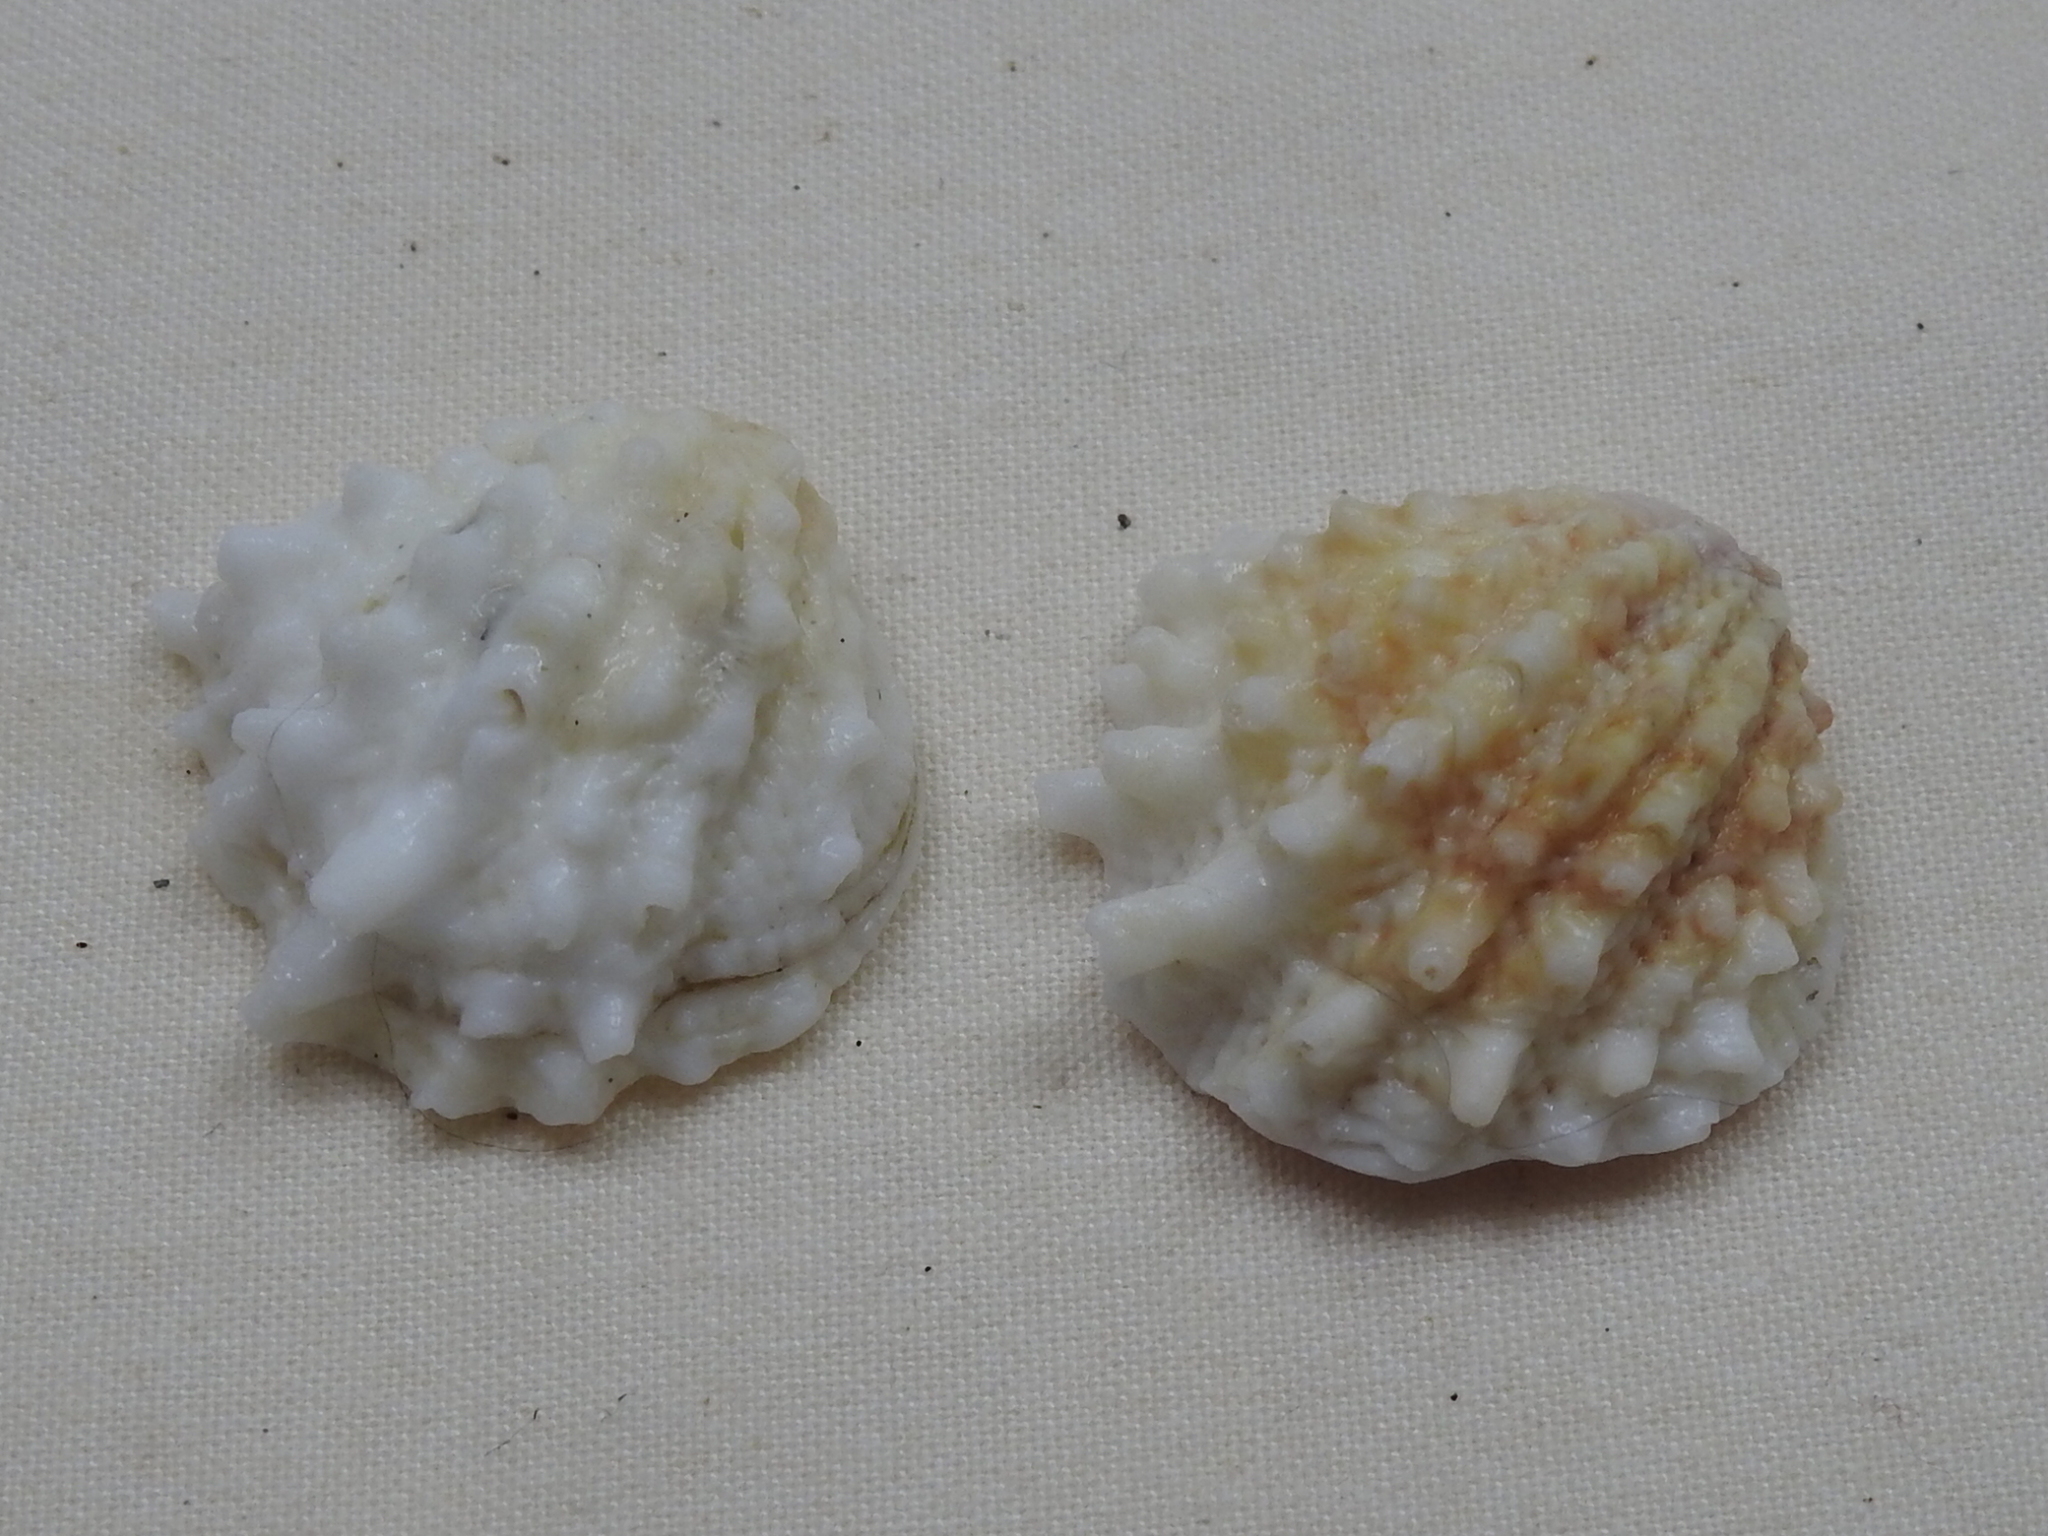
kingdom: Animalia
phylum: Mollusca
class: Bivalvia
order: Venerida
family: Chamidae
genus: Arcinella
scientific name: Arcinella cornuta
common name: Florida spiny jewel box
